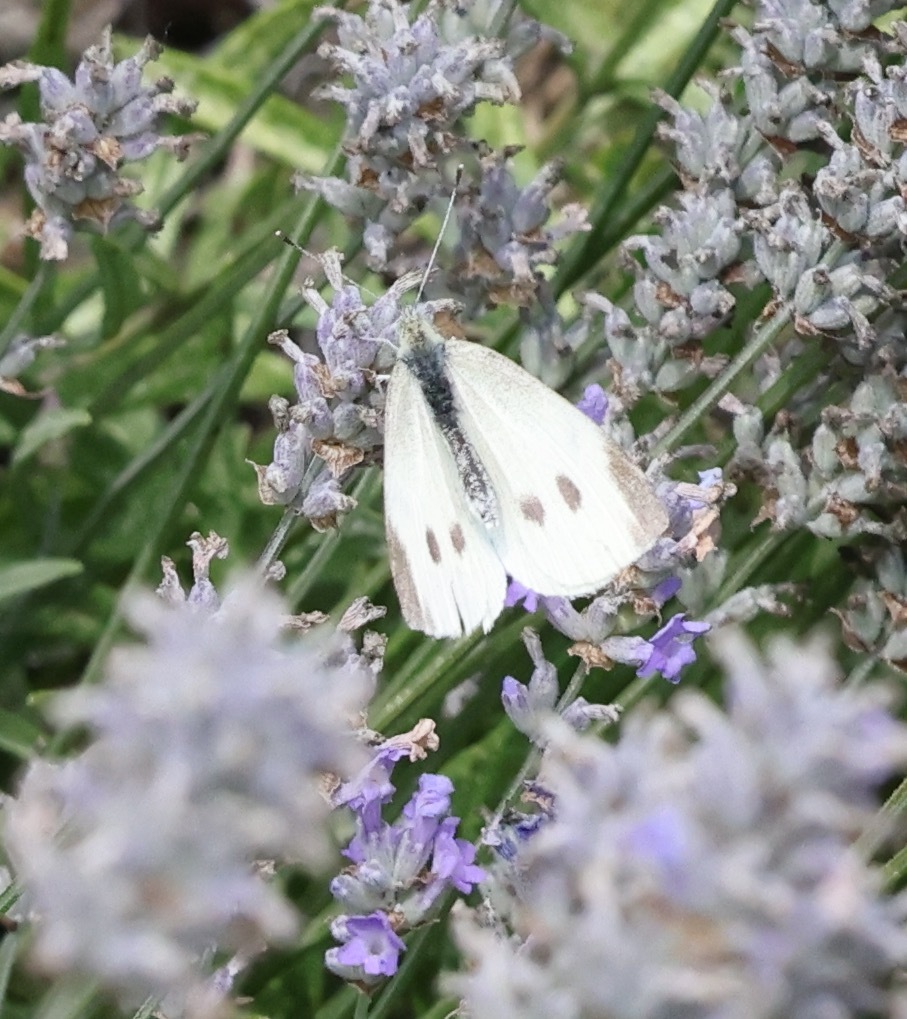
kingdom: Animalia
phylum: Arthropoda
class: Insecta
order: Lepidoptera
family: Pieridae
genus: Pieris
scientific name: Pieris rapae
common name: Small white
